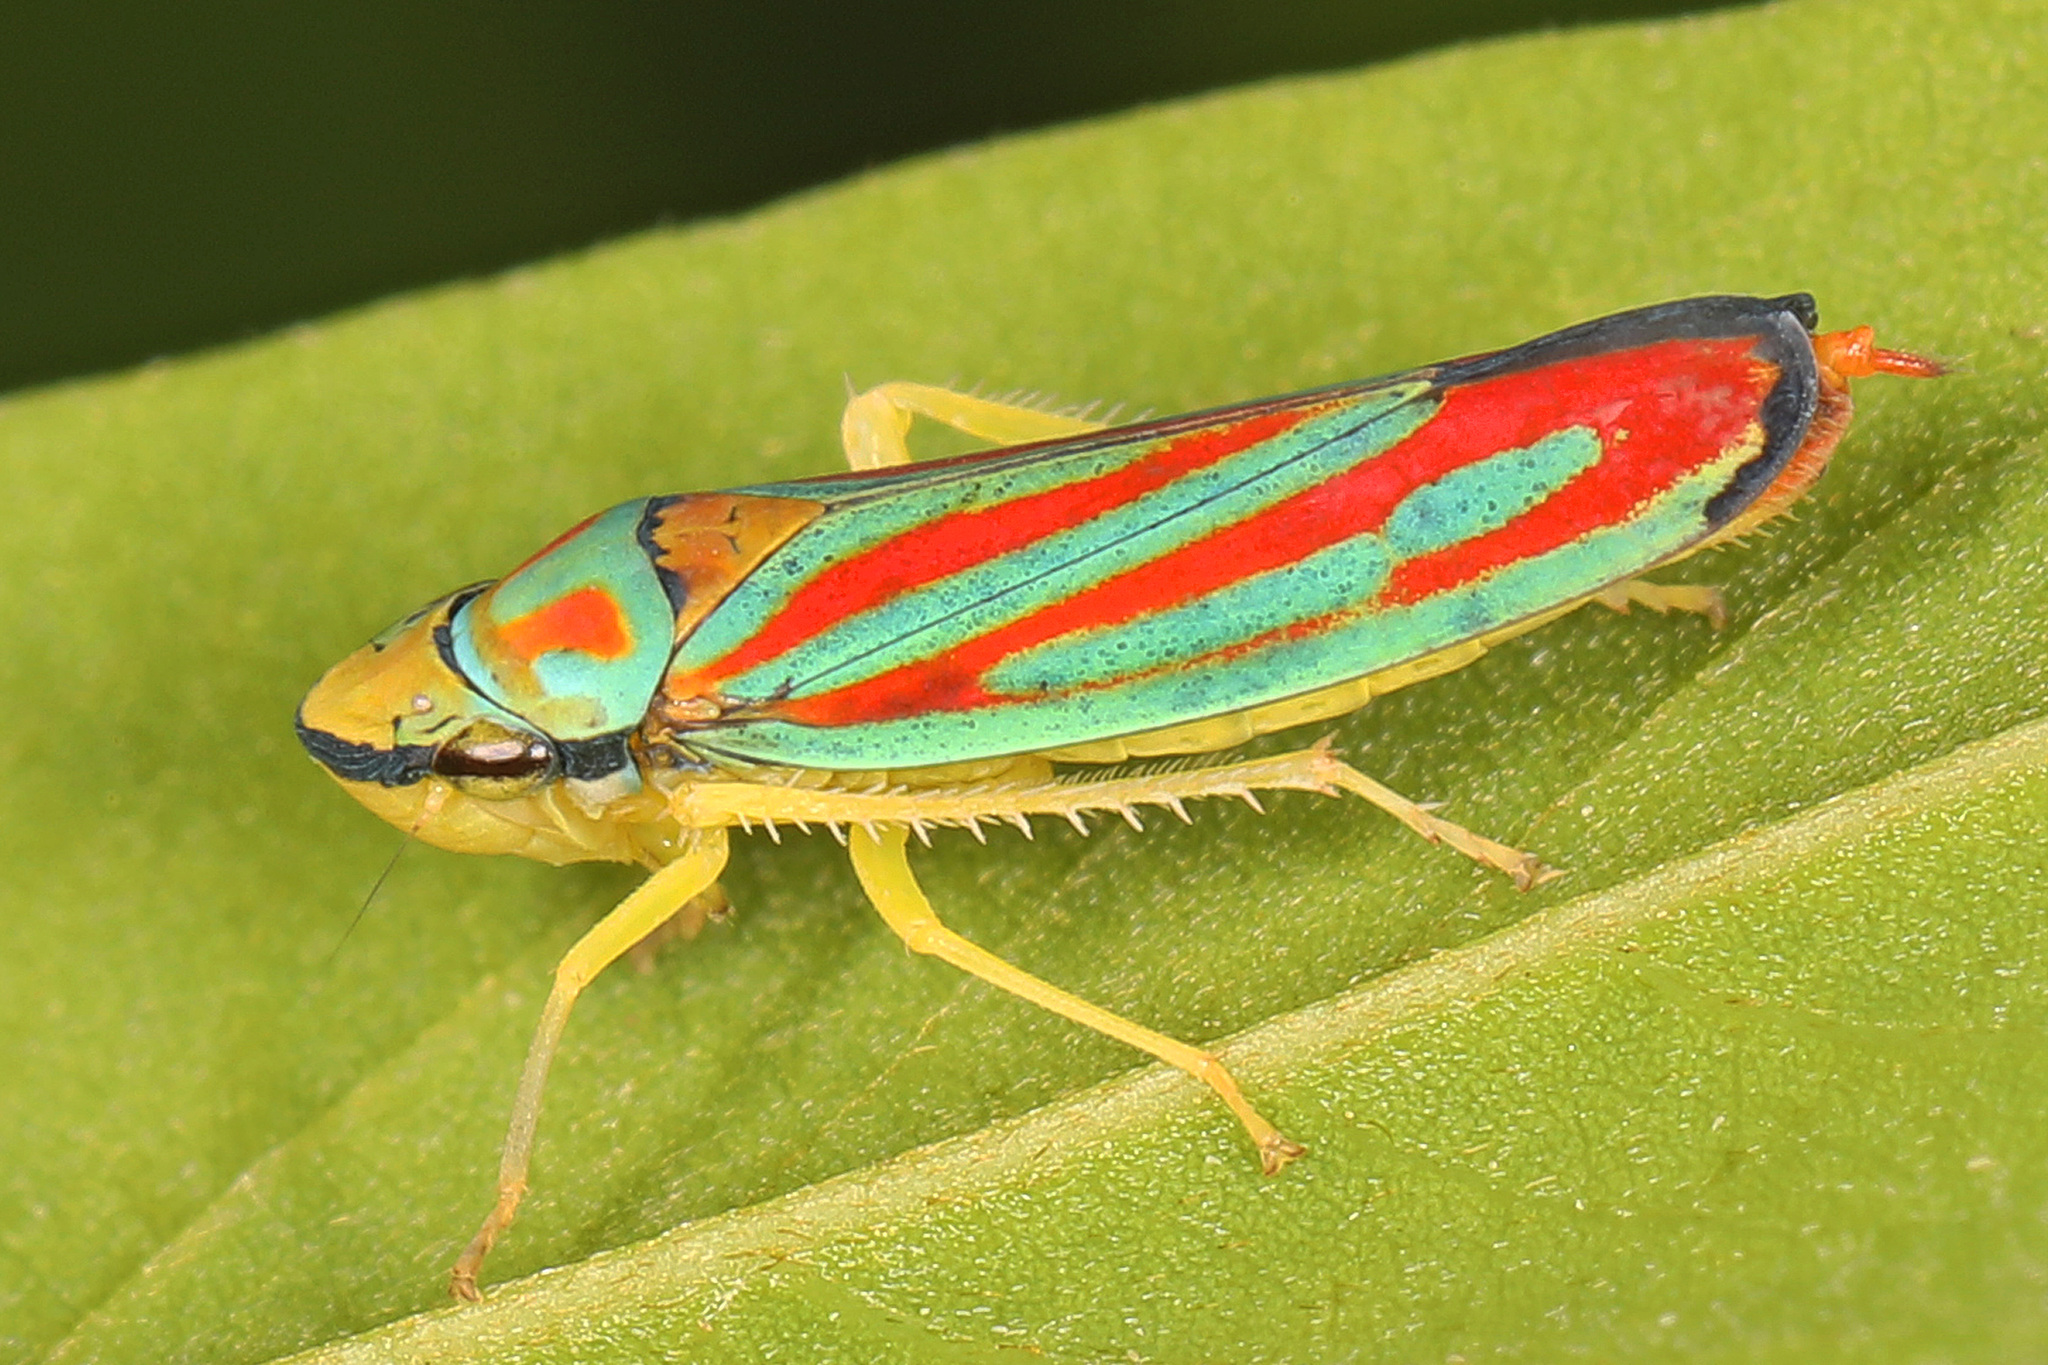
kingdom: Animalia
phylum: Arthropoda
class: Insecta
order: Hemiptera
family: Cicadellidae
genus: Graphocephala
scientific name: Graphocephala coccinea
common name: Candy-striped leafhopper
